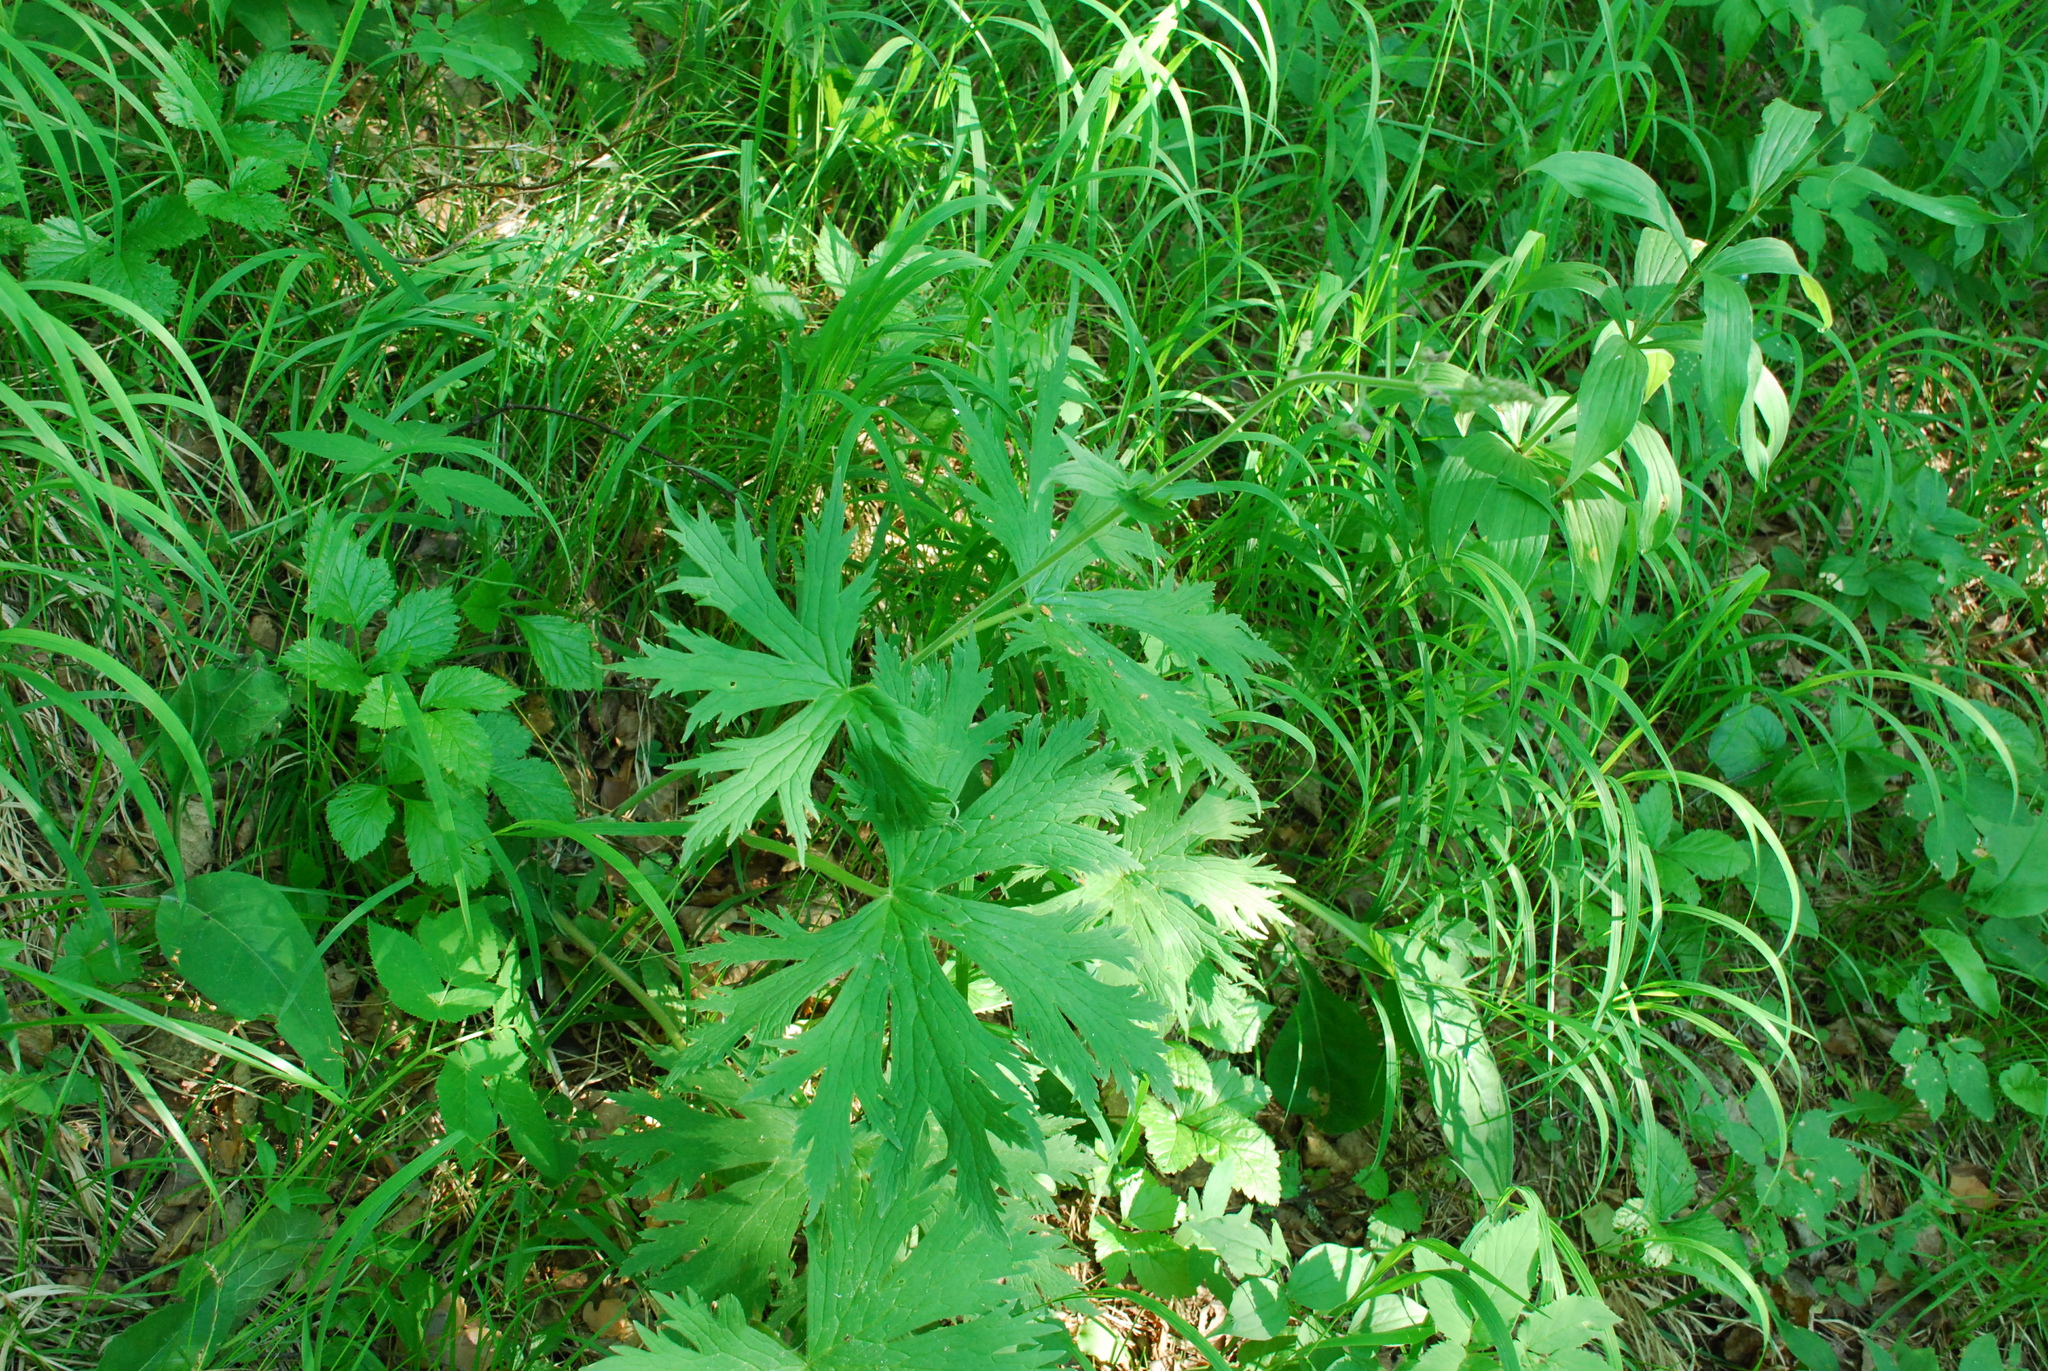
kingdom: Plantae
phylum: Tracheophyta
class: Magnoliopsida
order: Ranunculales
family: Ranunculaceae
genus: Aconitum
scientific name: Aconitum septentrionale
